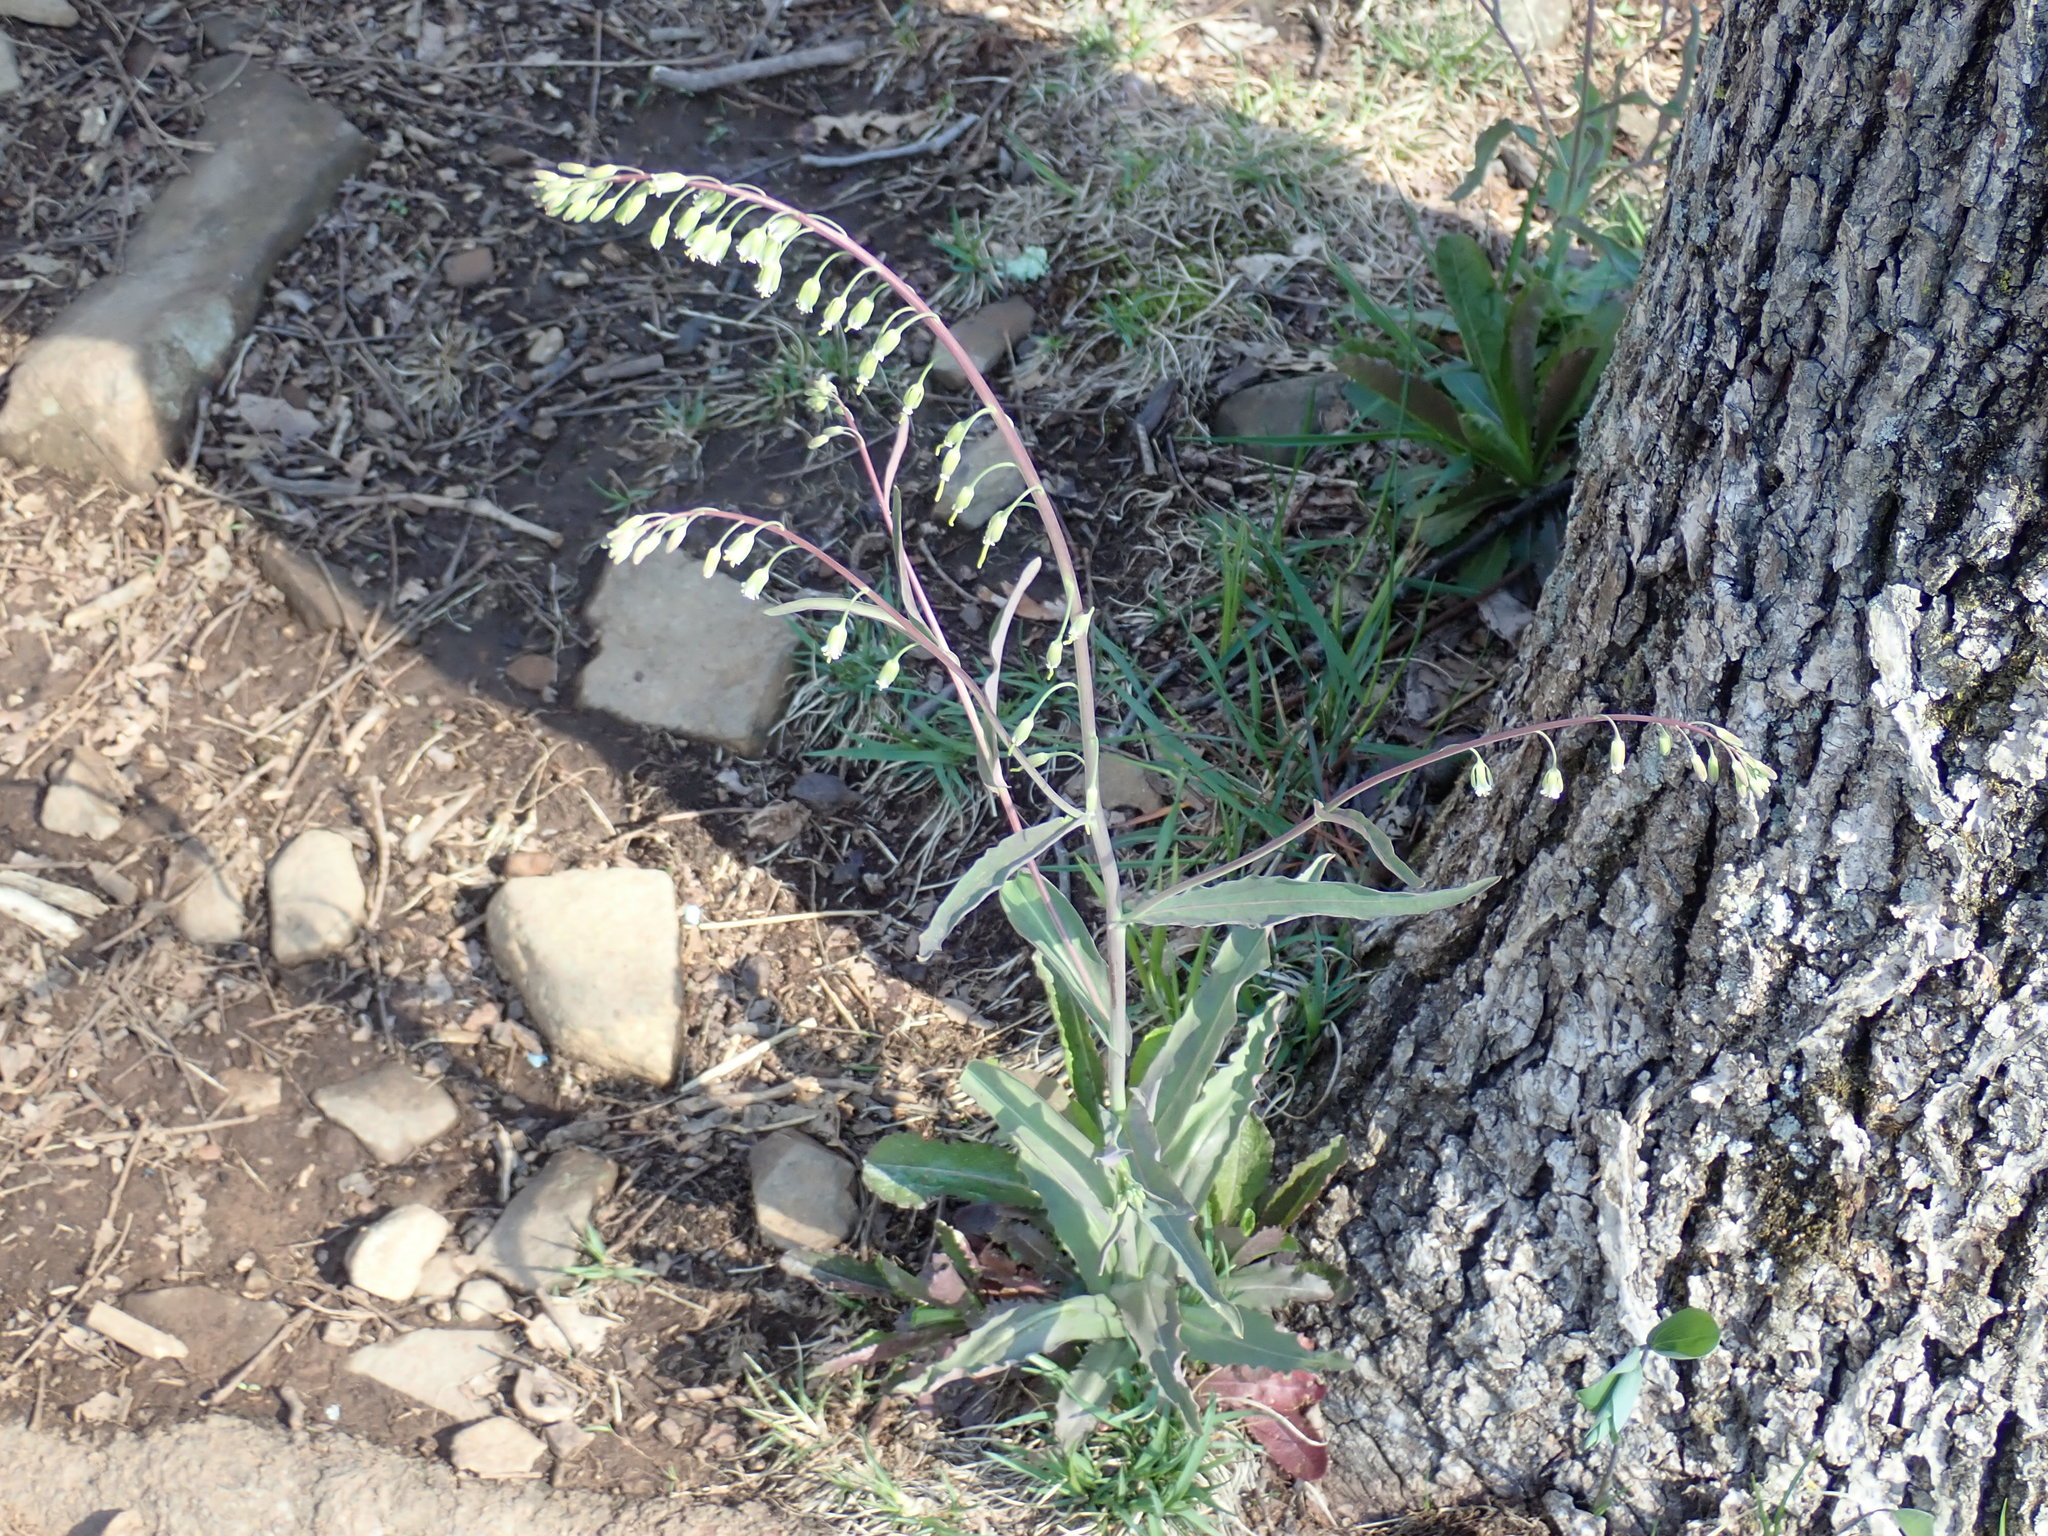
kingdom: Plantae
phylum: Tracheophyta
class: Magnoliopsida
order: Brassicales
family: Brassicaceae
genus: Borodinia
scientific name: Borodinia laevigata
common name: Smooth rockcress
